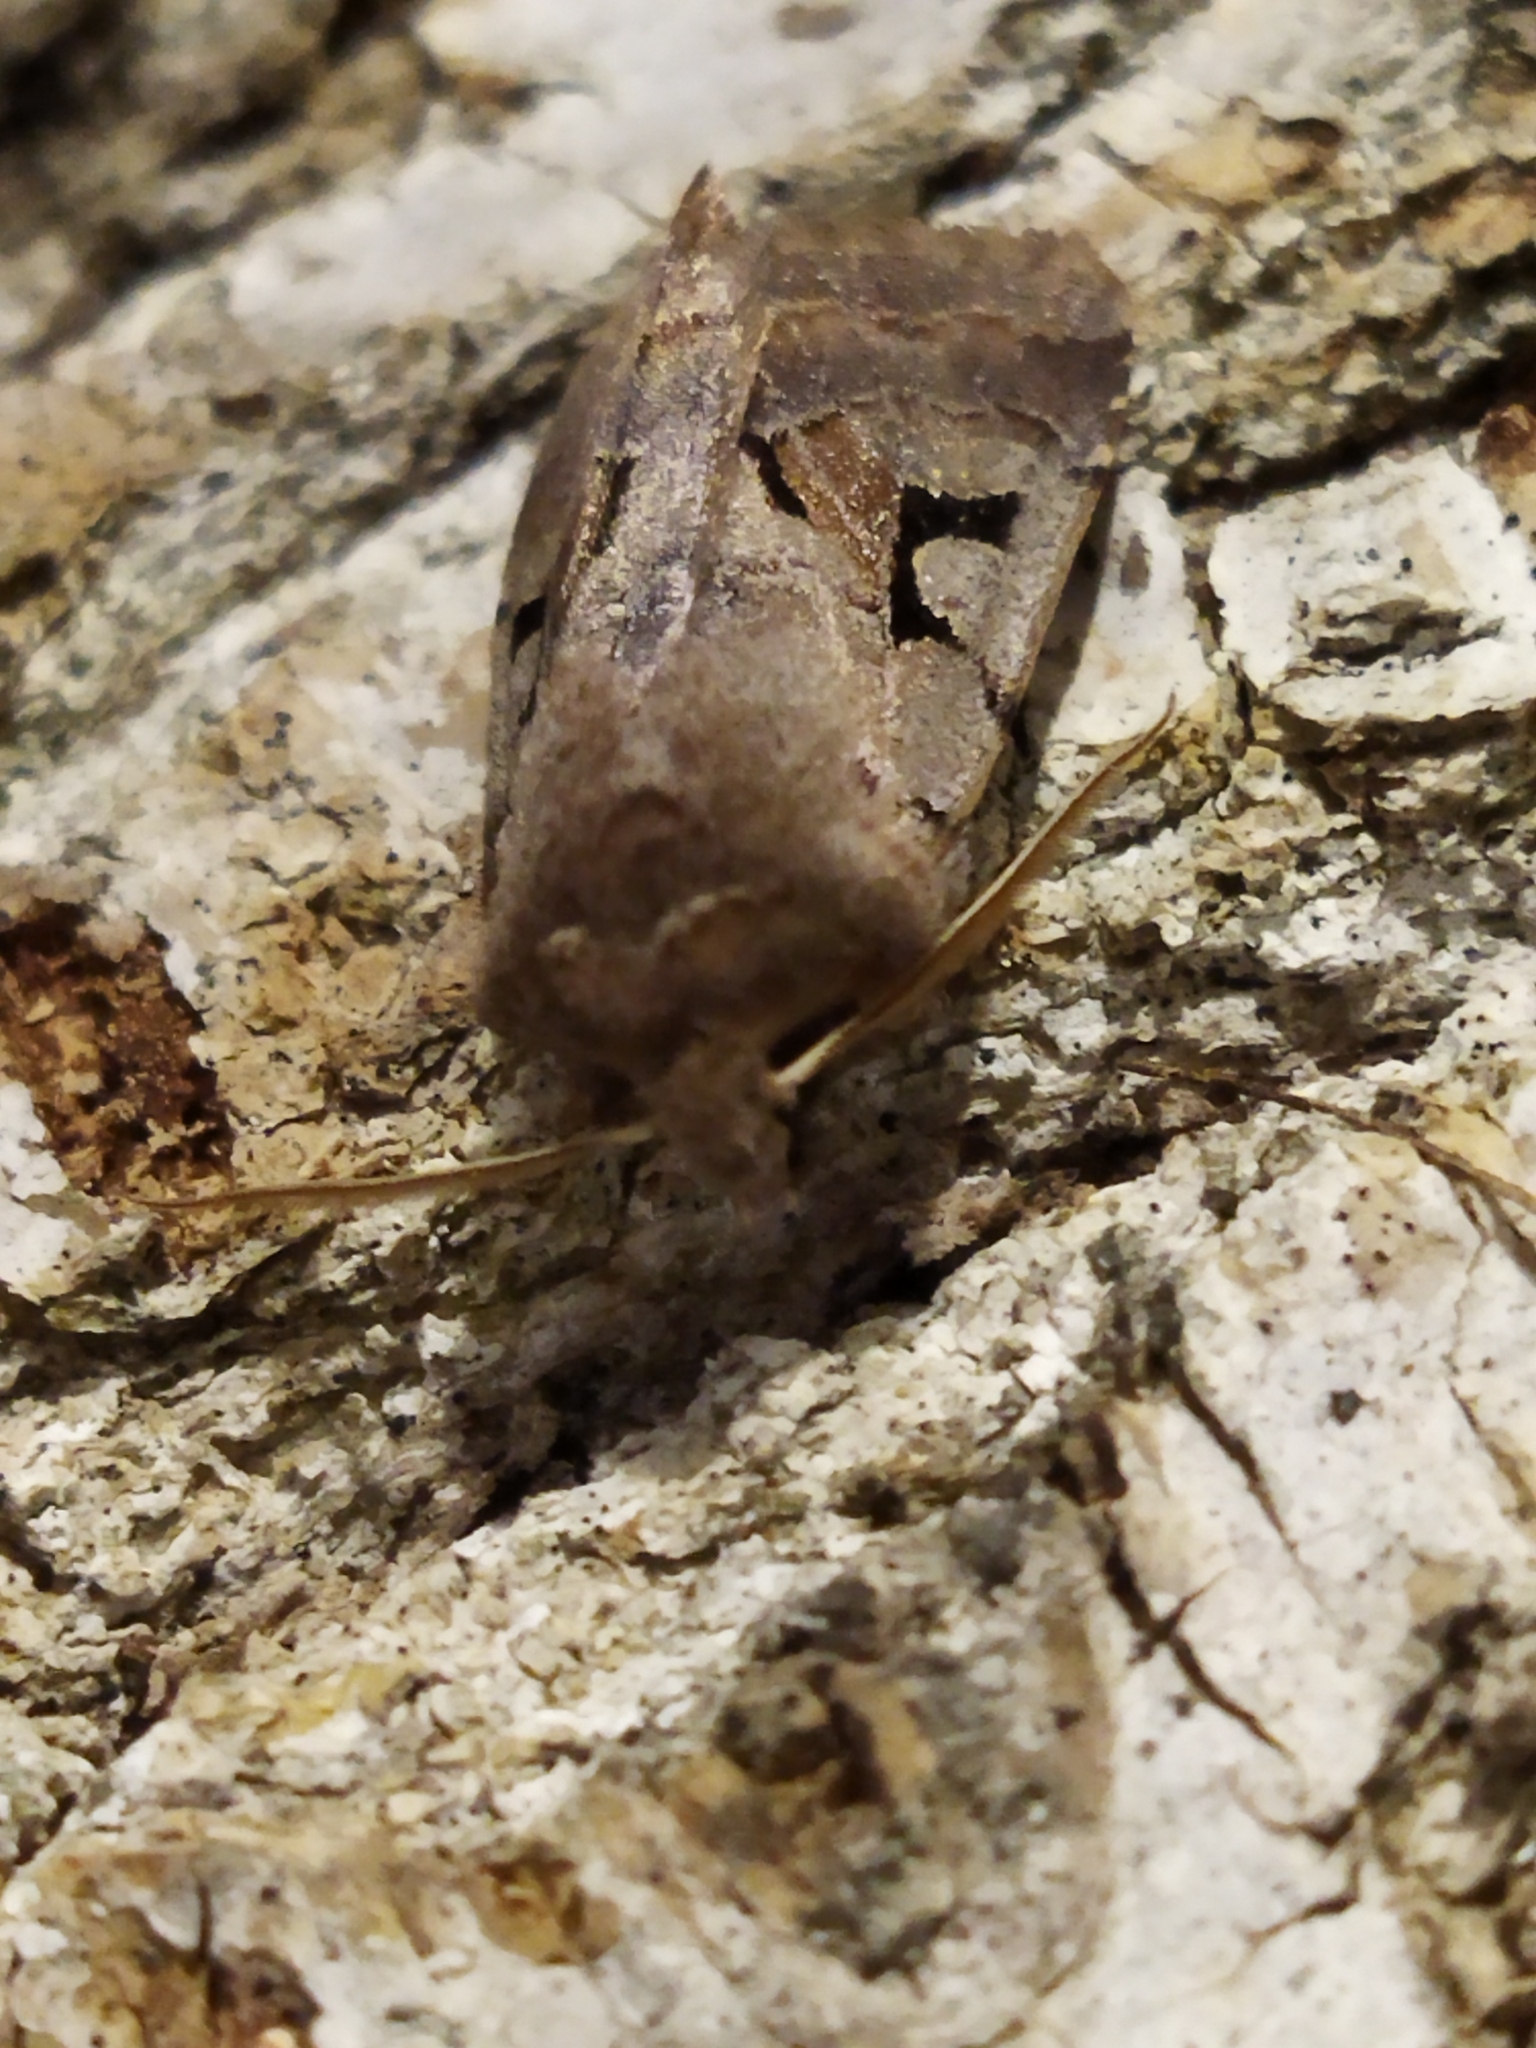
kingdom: Animalia
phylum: Arthropoda
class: Insecta
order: Lepidoptera
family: Noctuidae
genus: Orthosia
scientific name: Orthosia gothica
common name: Hebrew character
